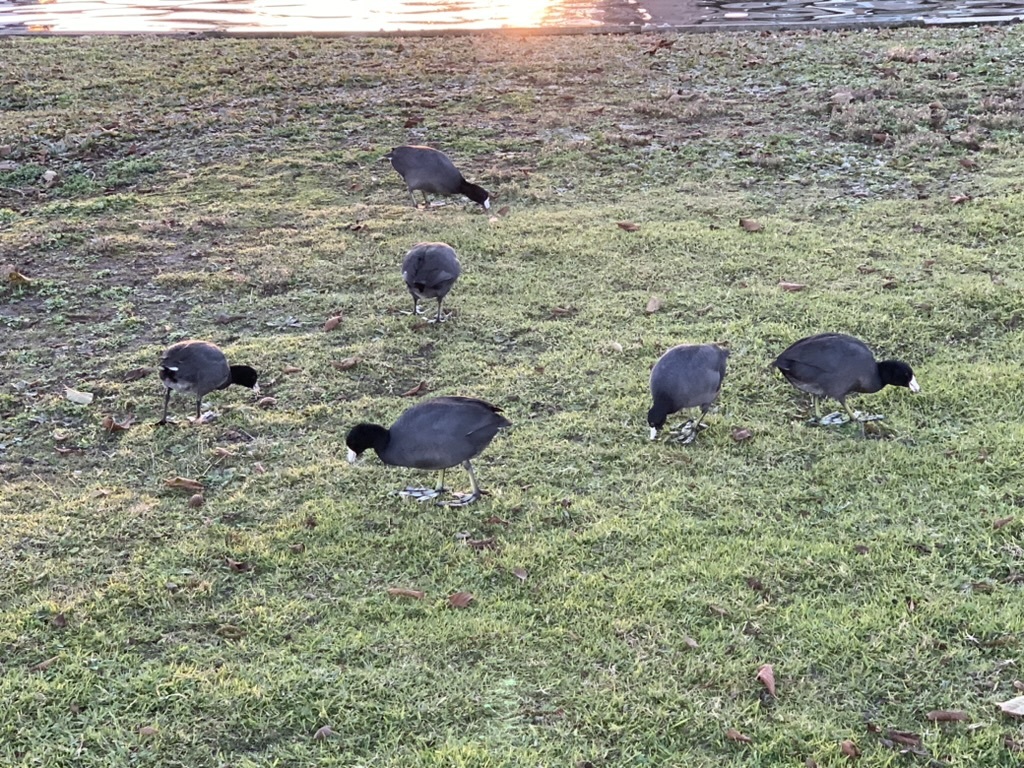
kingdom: Animalia
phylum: Chordata
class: Aves
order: Gruiformes
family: Rallidae
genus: Fulica
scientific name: Fulica americana
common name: American coot
